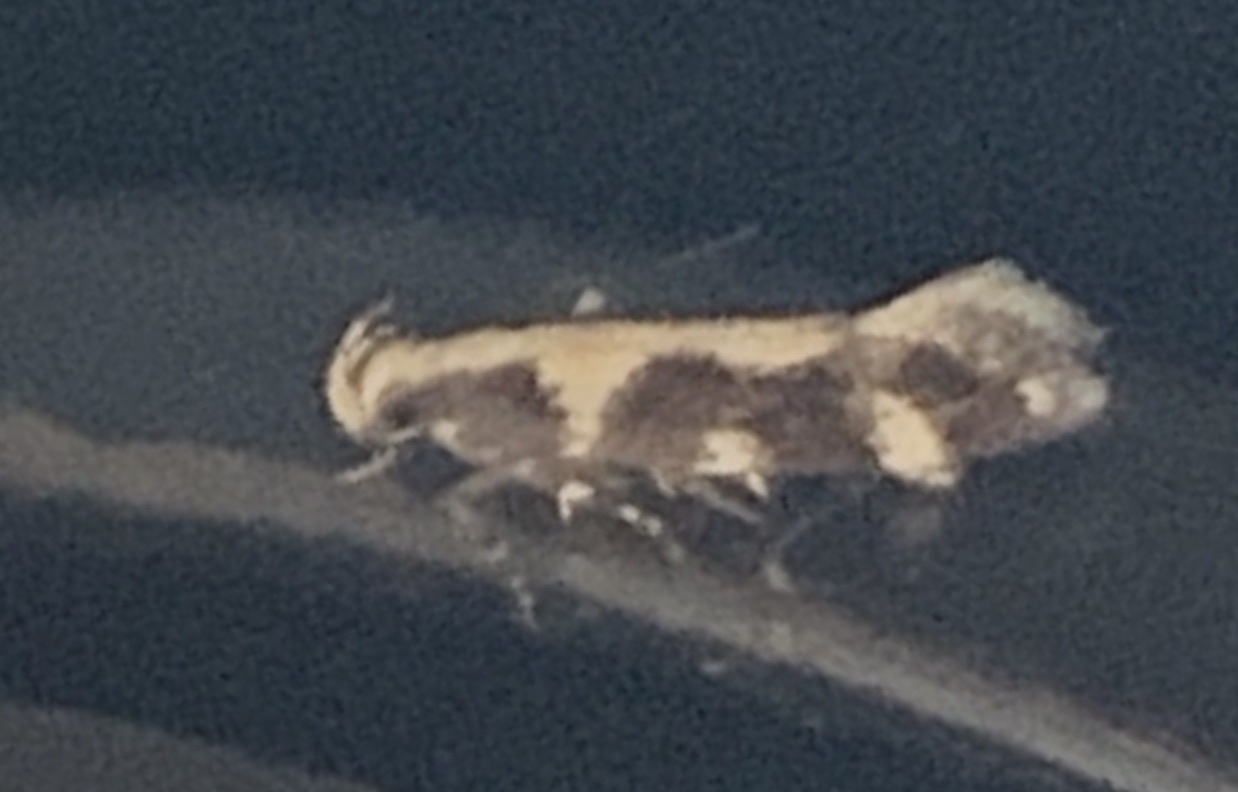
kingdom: Animalia
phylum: Arthropoda
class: Insecta
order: Lepidoptera
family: Gelechiidae
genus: Stegasta
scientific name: Stegasta capitella
